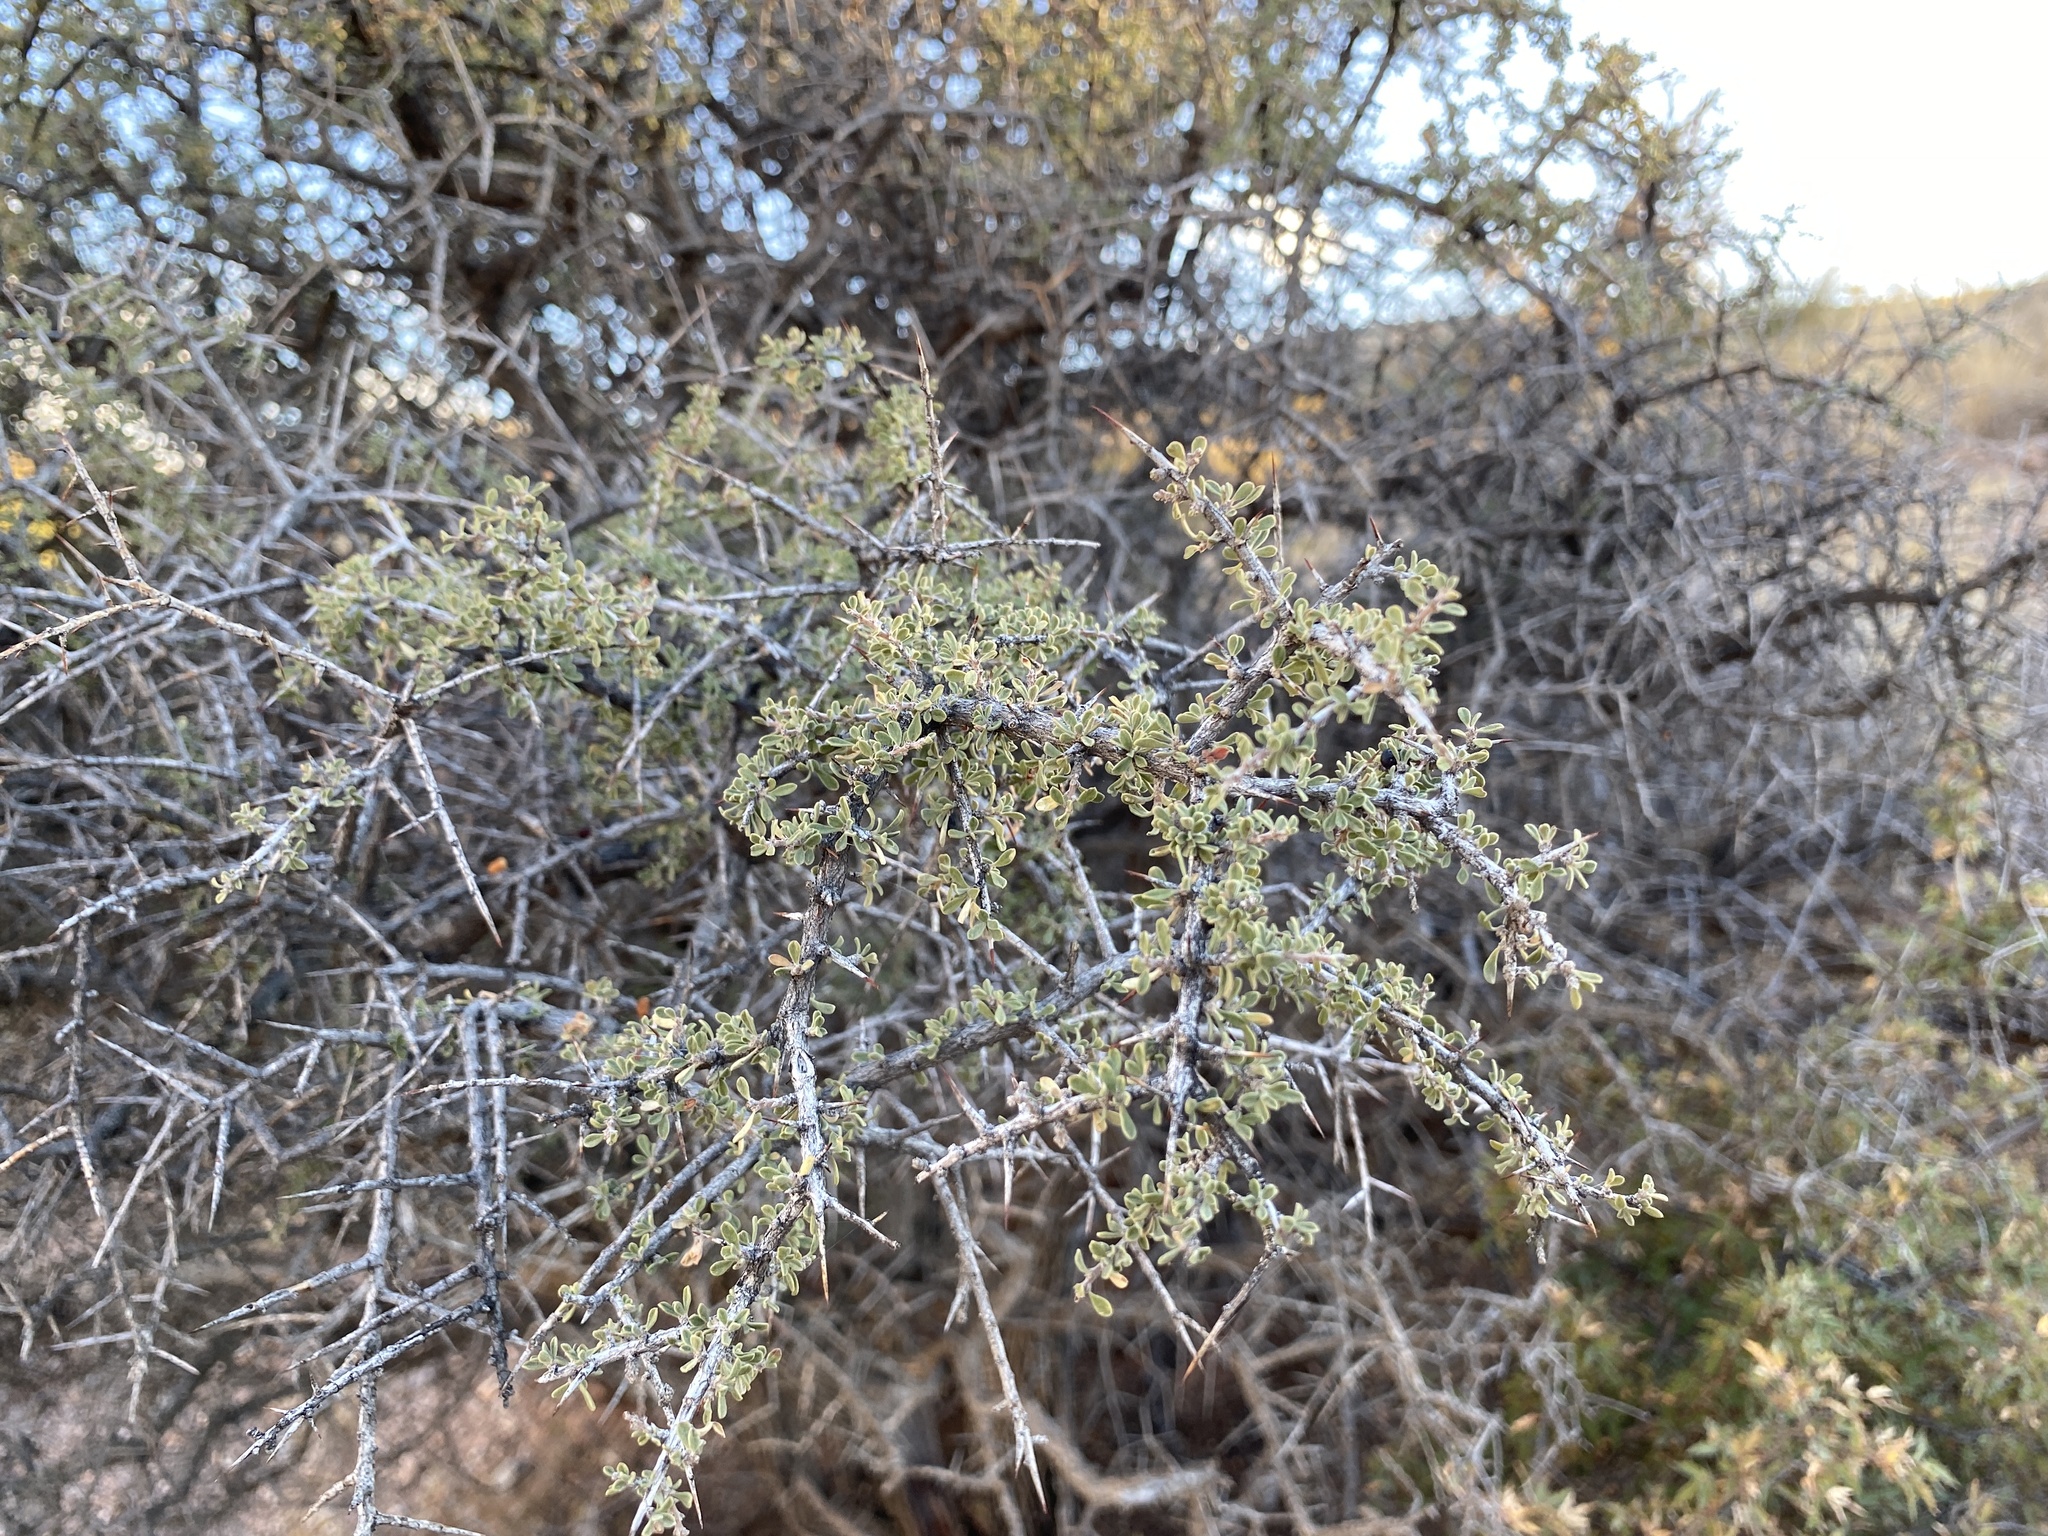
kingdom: Plantae
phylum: Tracheophyta
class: Magnoliopsida
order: Rosales
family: Rhamnaceae
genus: Condalia
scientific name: Condalia warnockii
